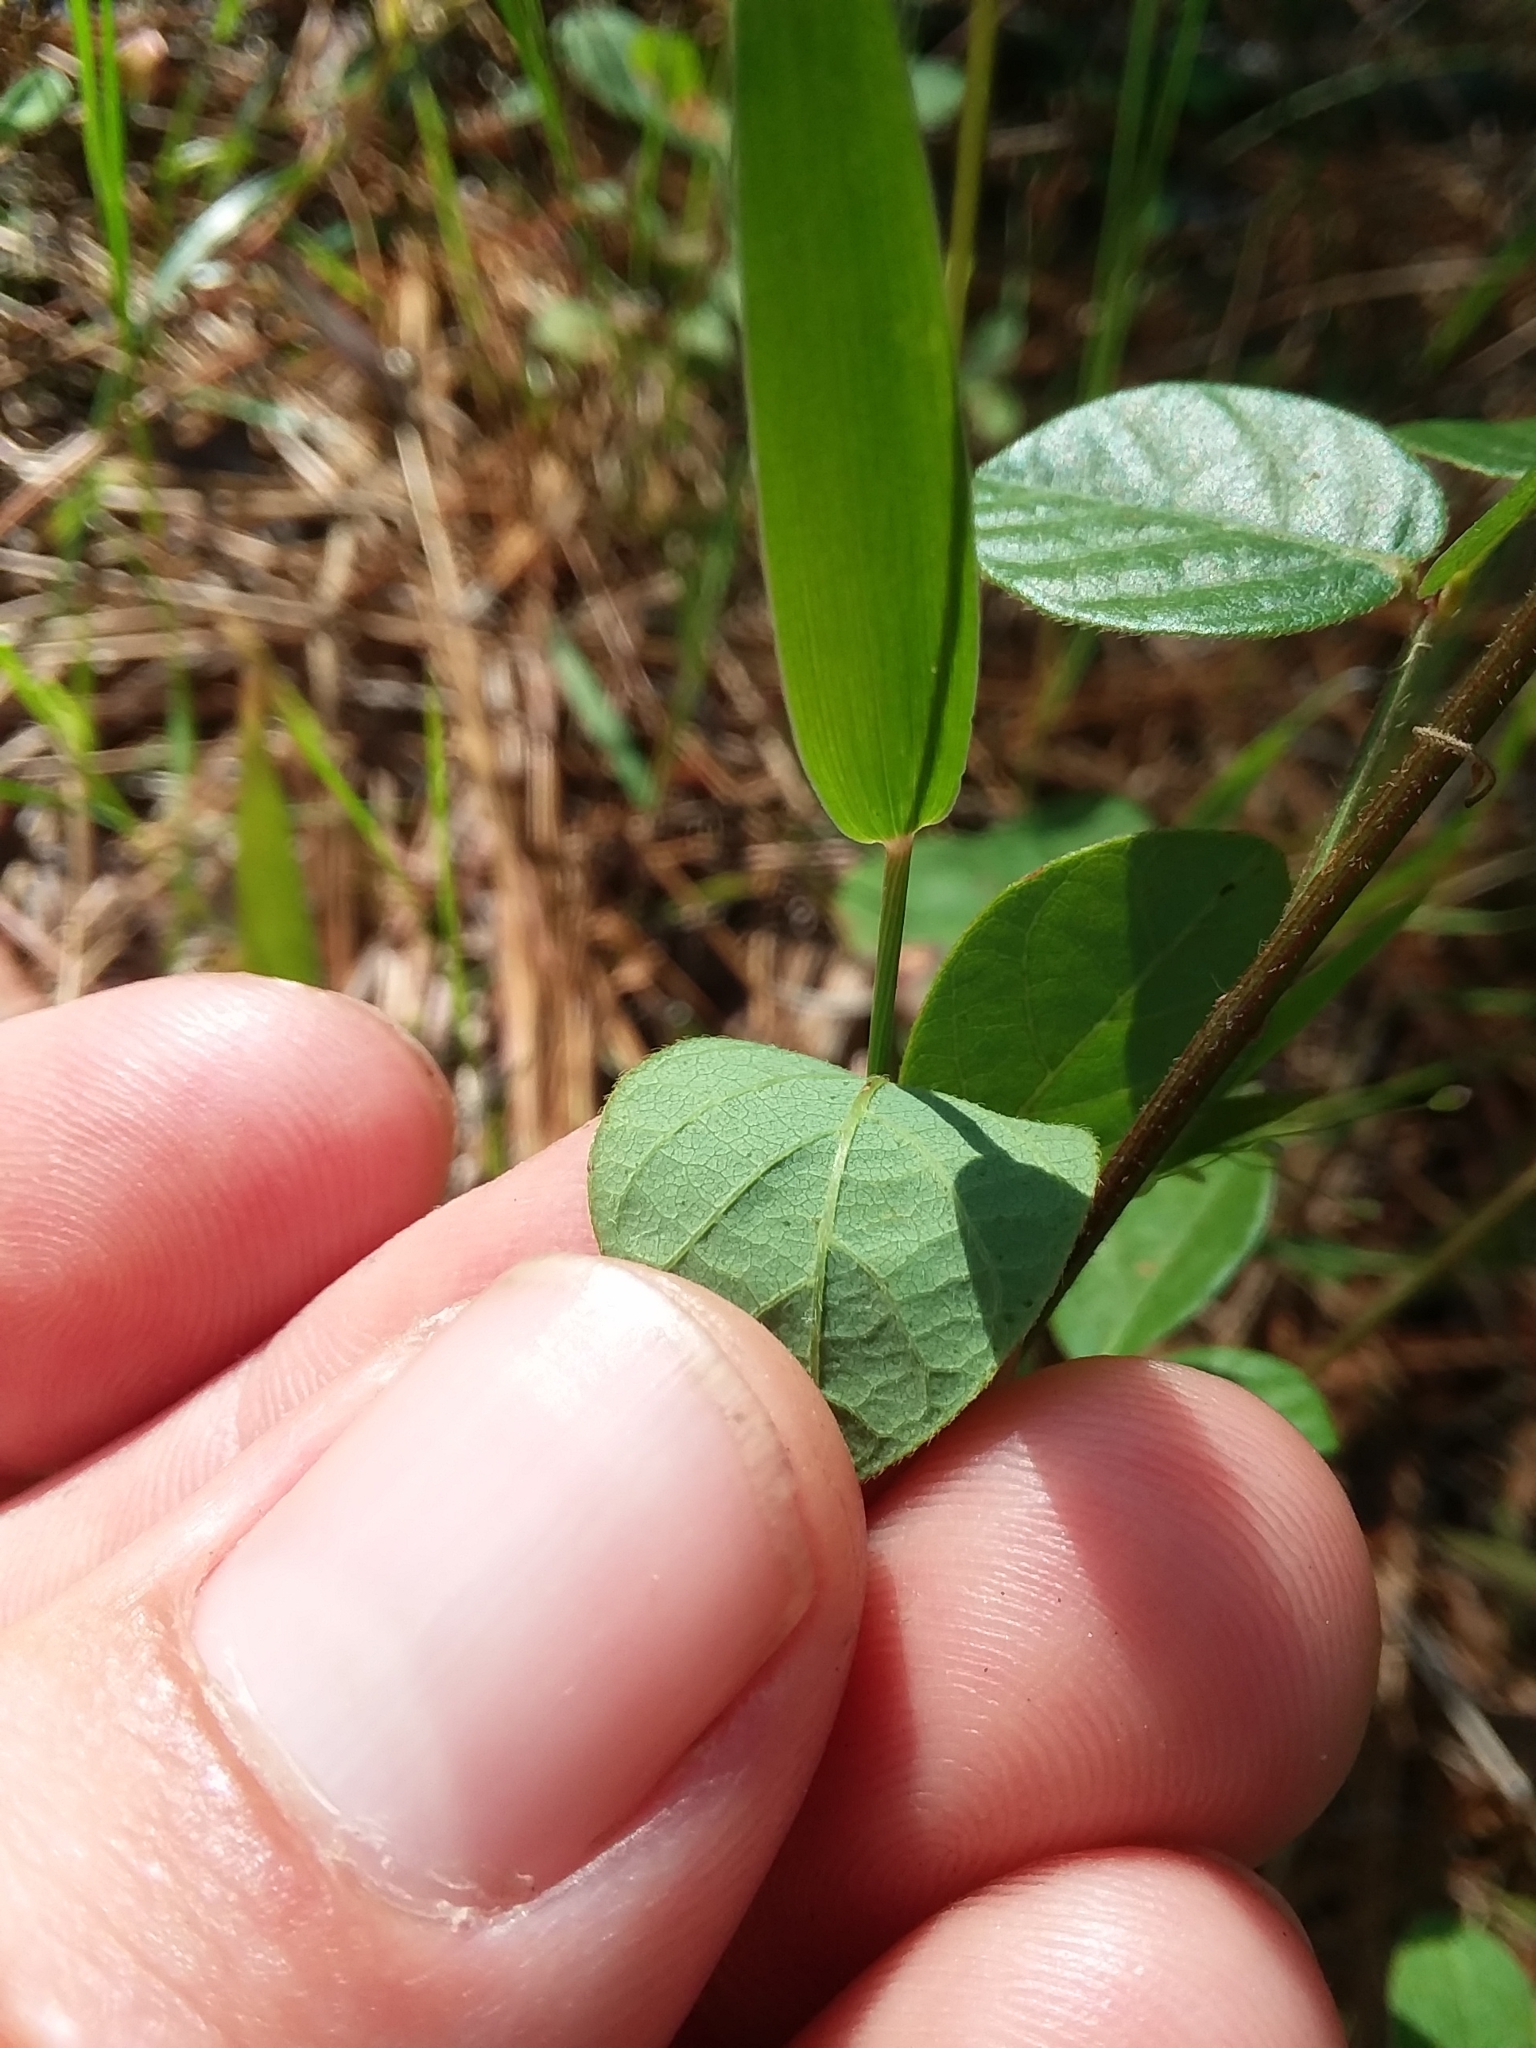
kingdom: Plantae
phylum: Tracheophyta
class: Magnoliopsida
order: Fabales
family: Fabaceae
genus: Desmodium
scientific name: Desmodium lineatum
